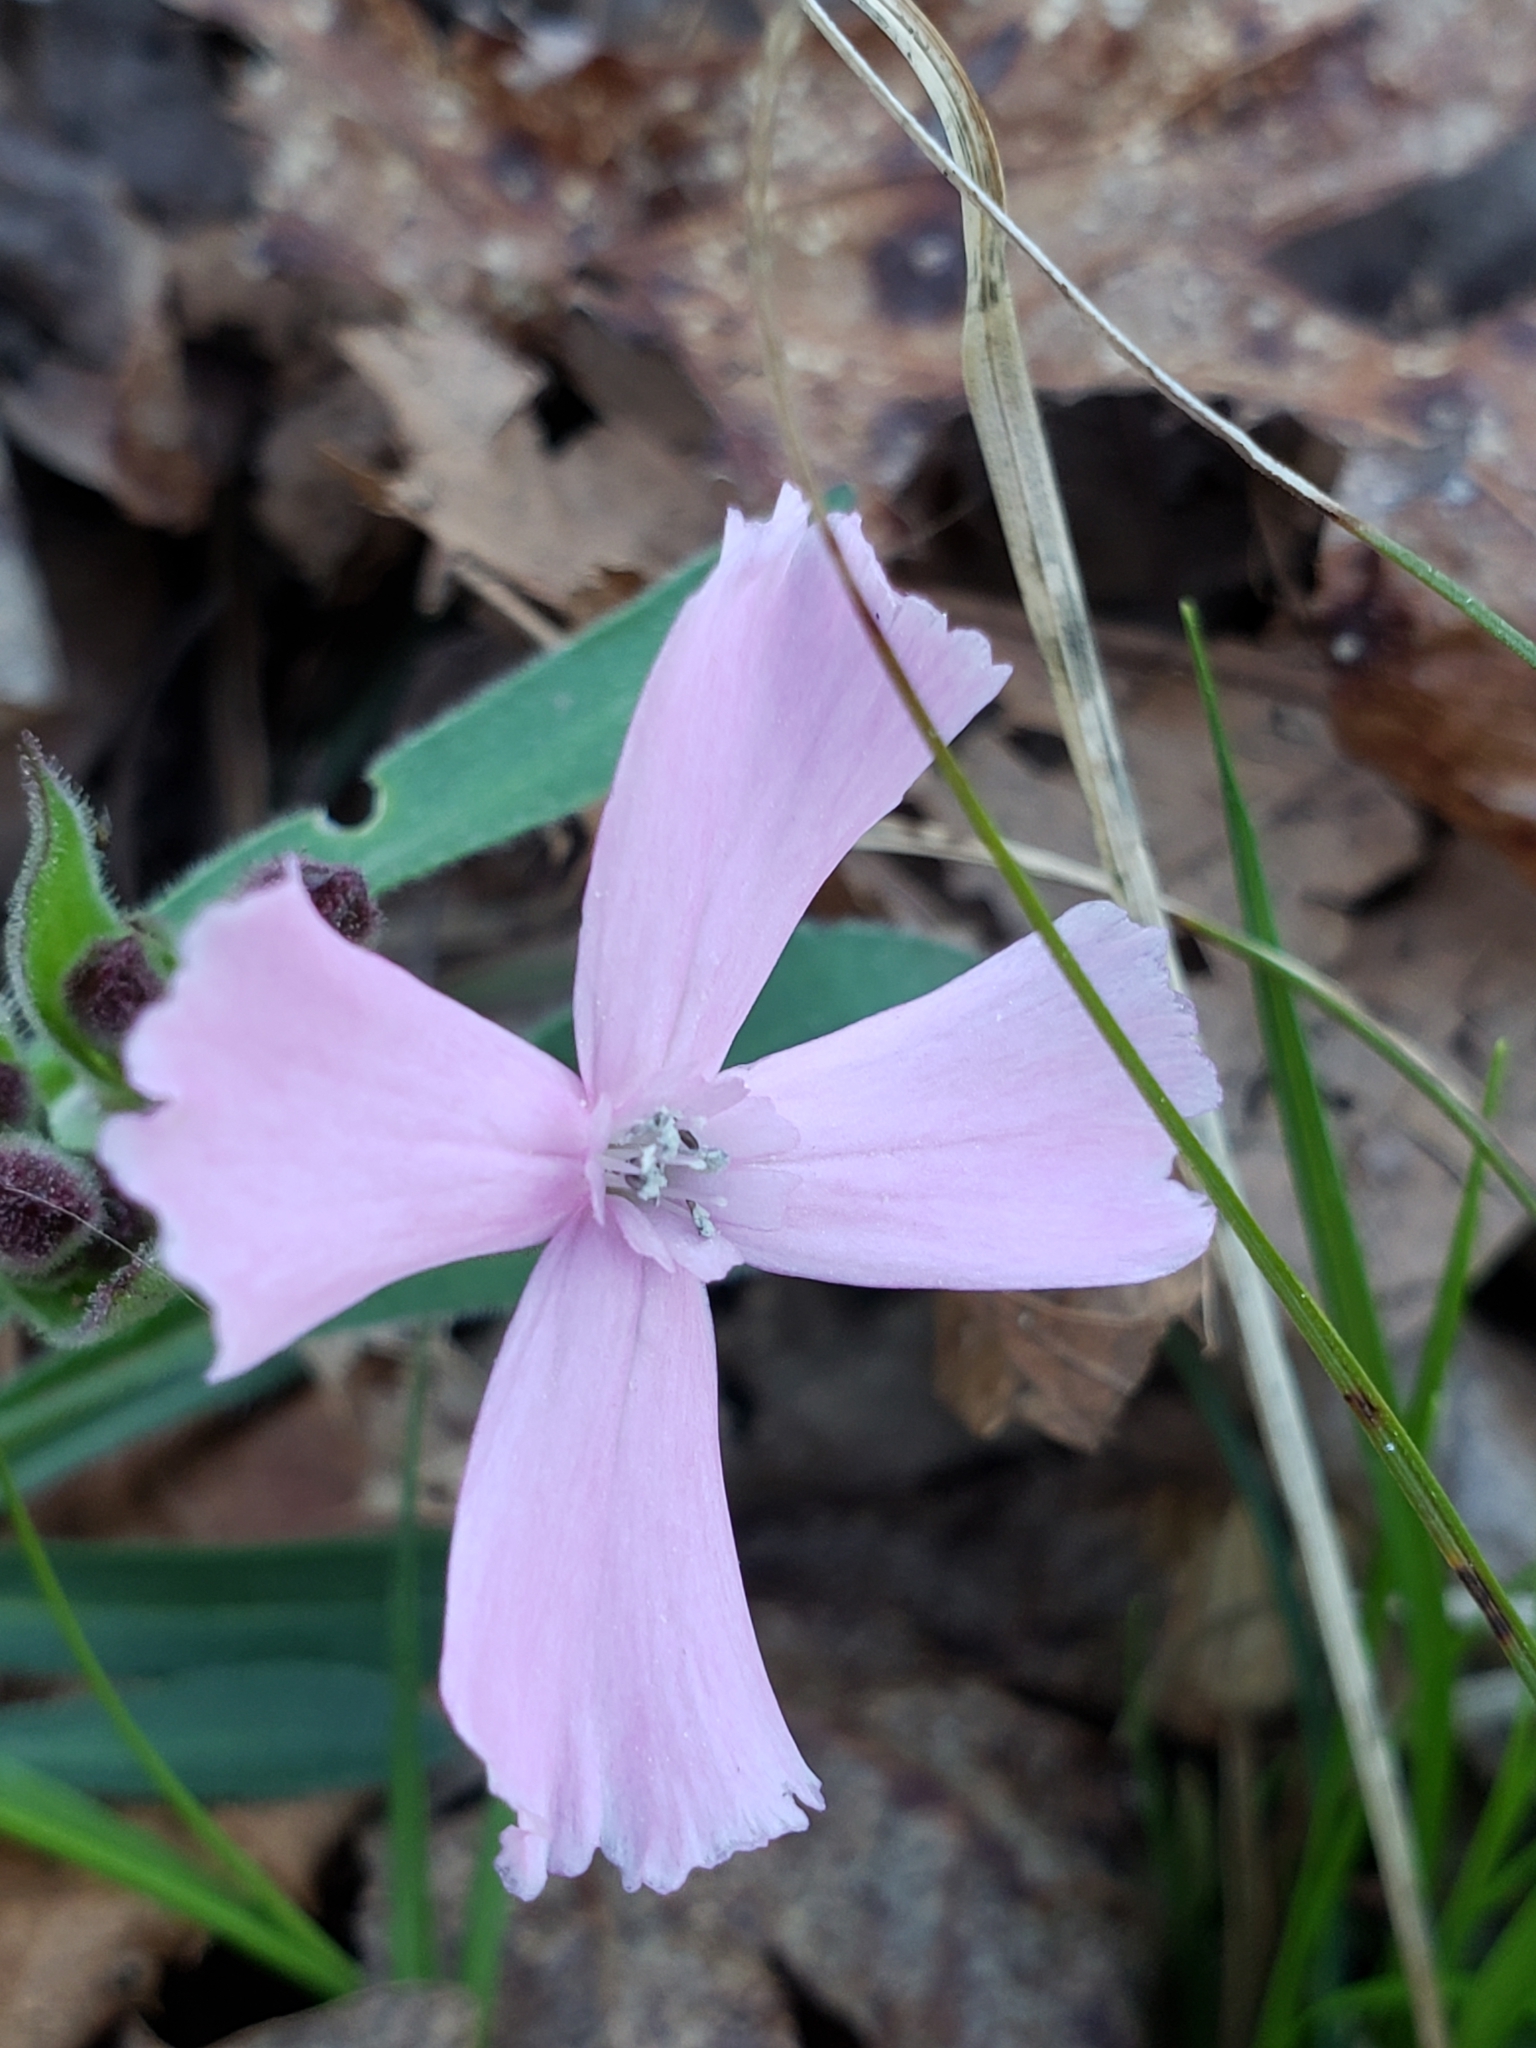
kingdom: Plantae
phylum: Tracheophyta
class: Magnoliopsida
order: Caryophyllales
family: Caryophyllaceae
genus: Silene
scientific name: Silene caroliniana
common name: Sticky catchfly
